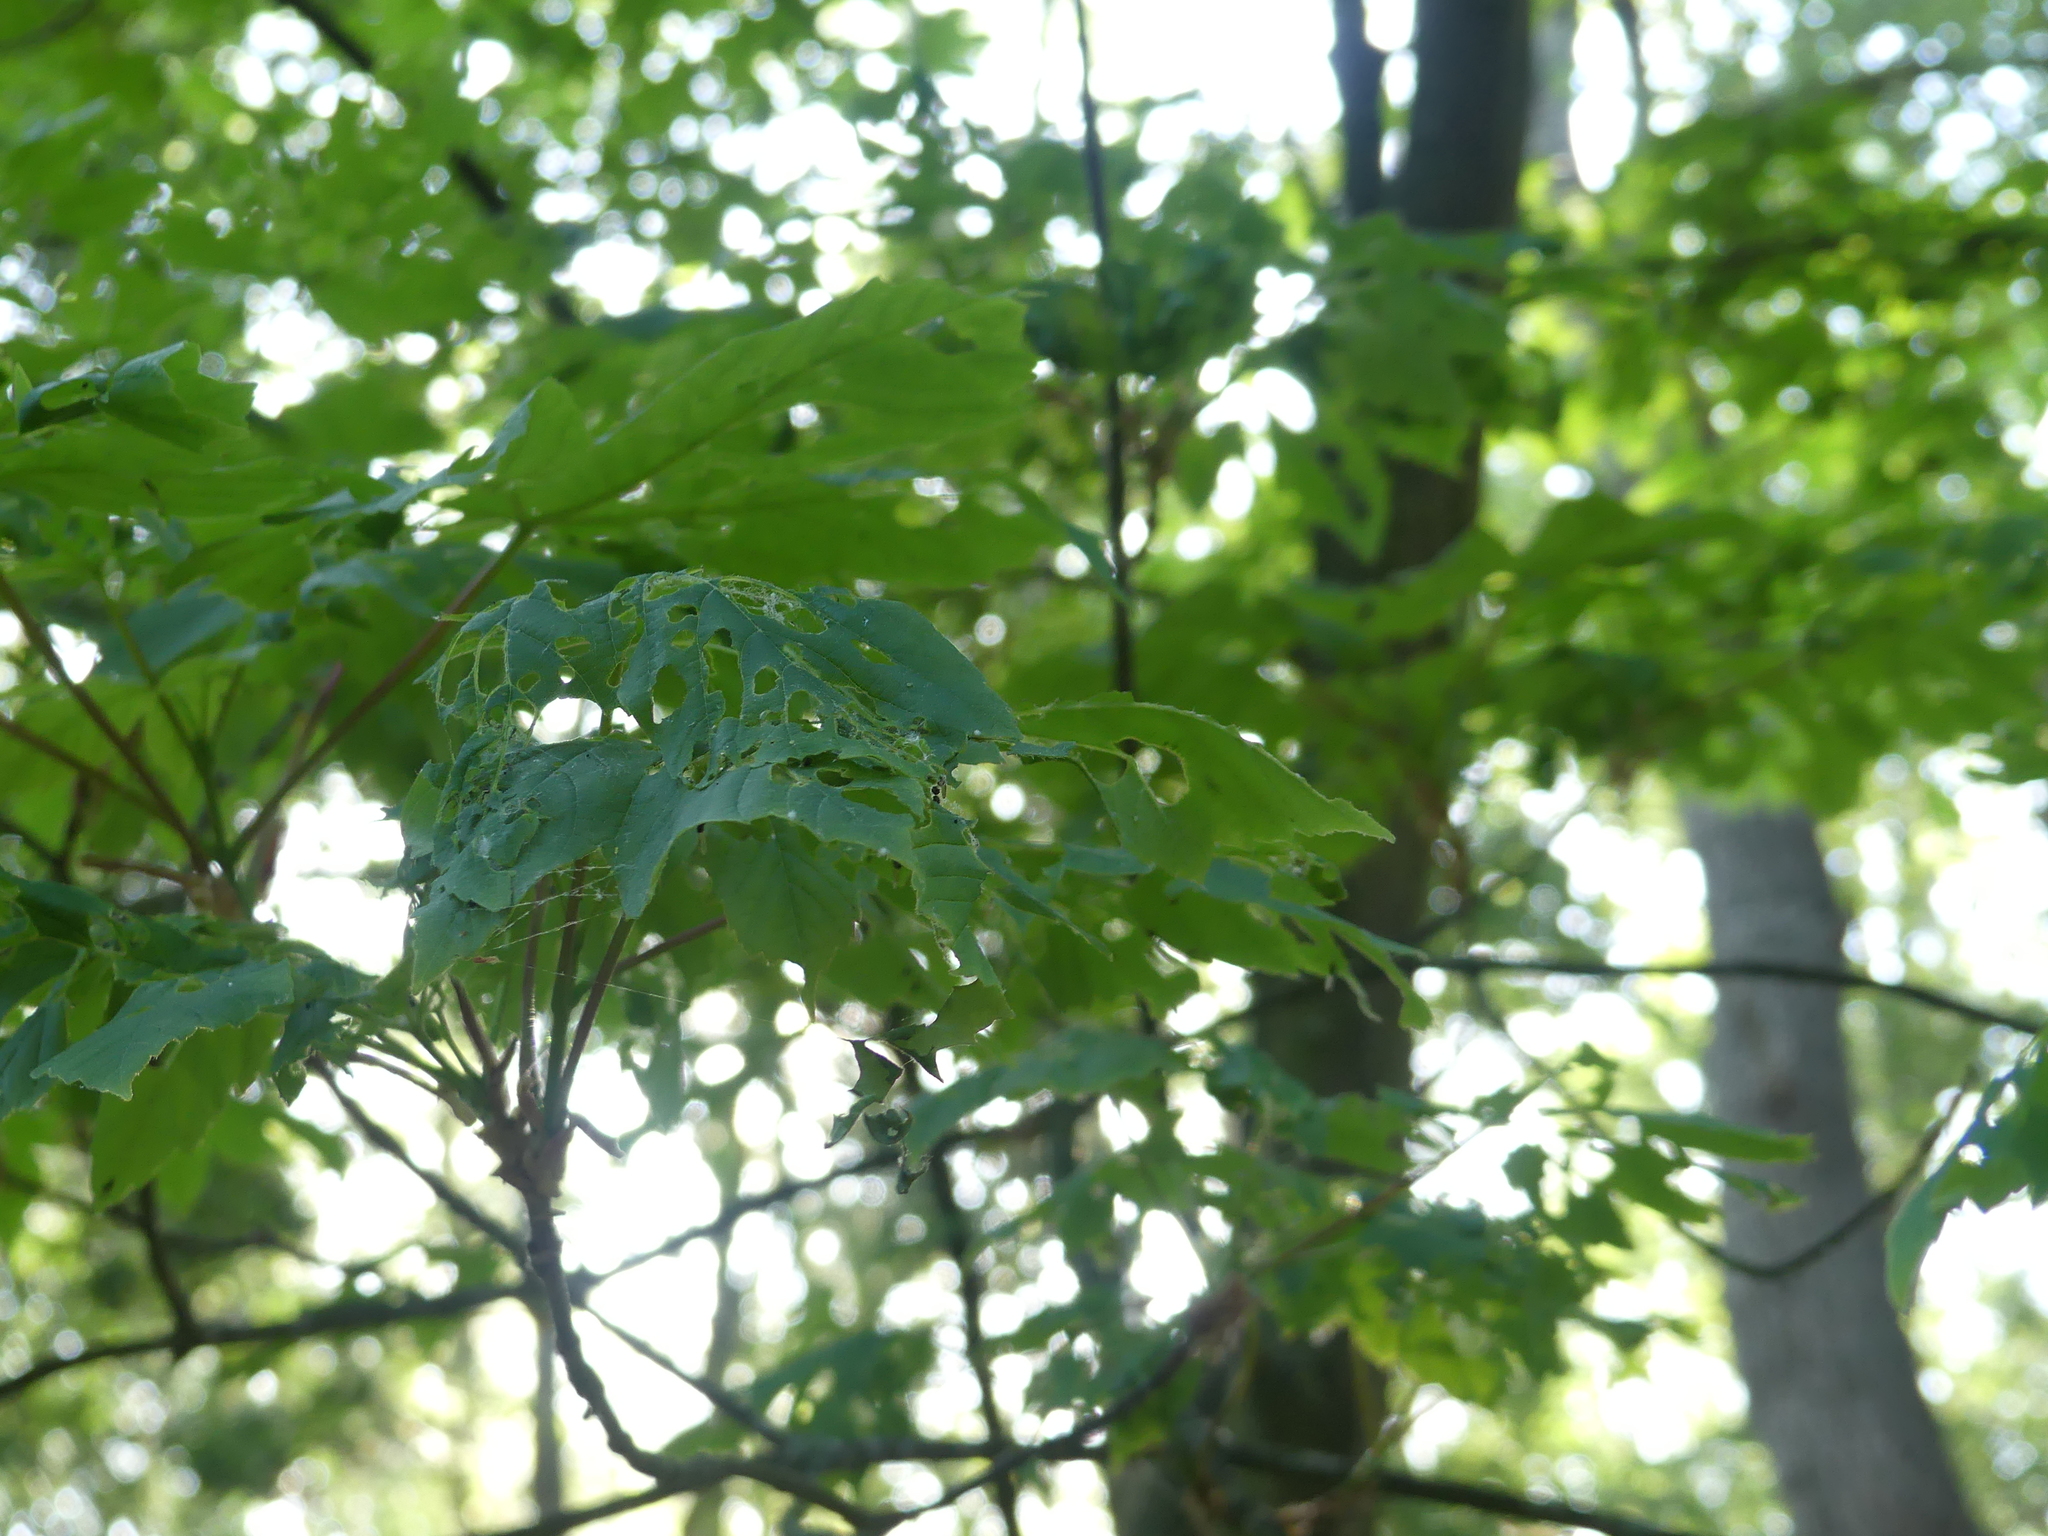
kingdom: Plantae
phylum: Tracheophyta
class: Magnoliopsida
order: Sapindales
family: Sapindaceae
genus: Acer
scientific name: Acer pseudoplatanus
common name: Sycamore
